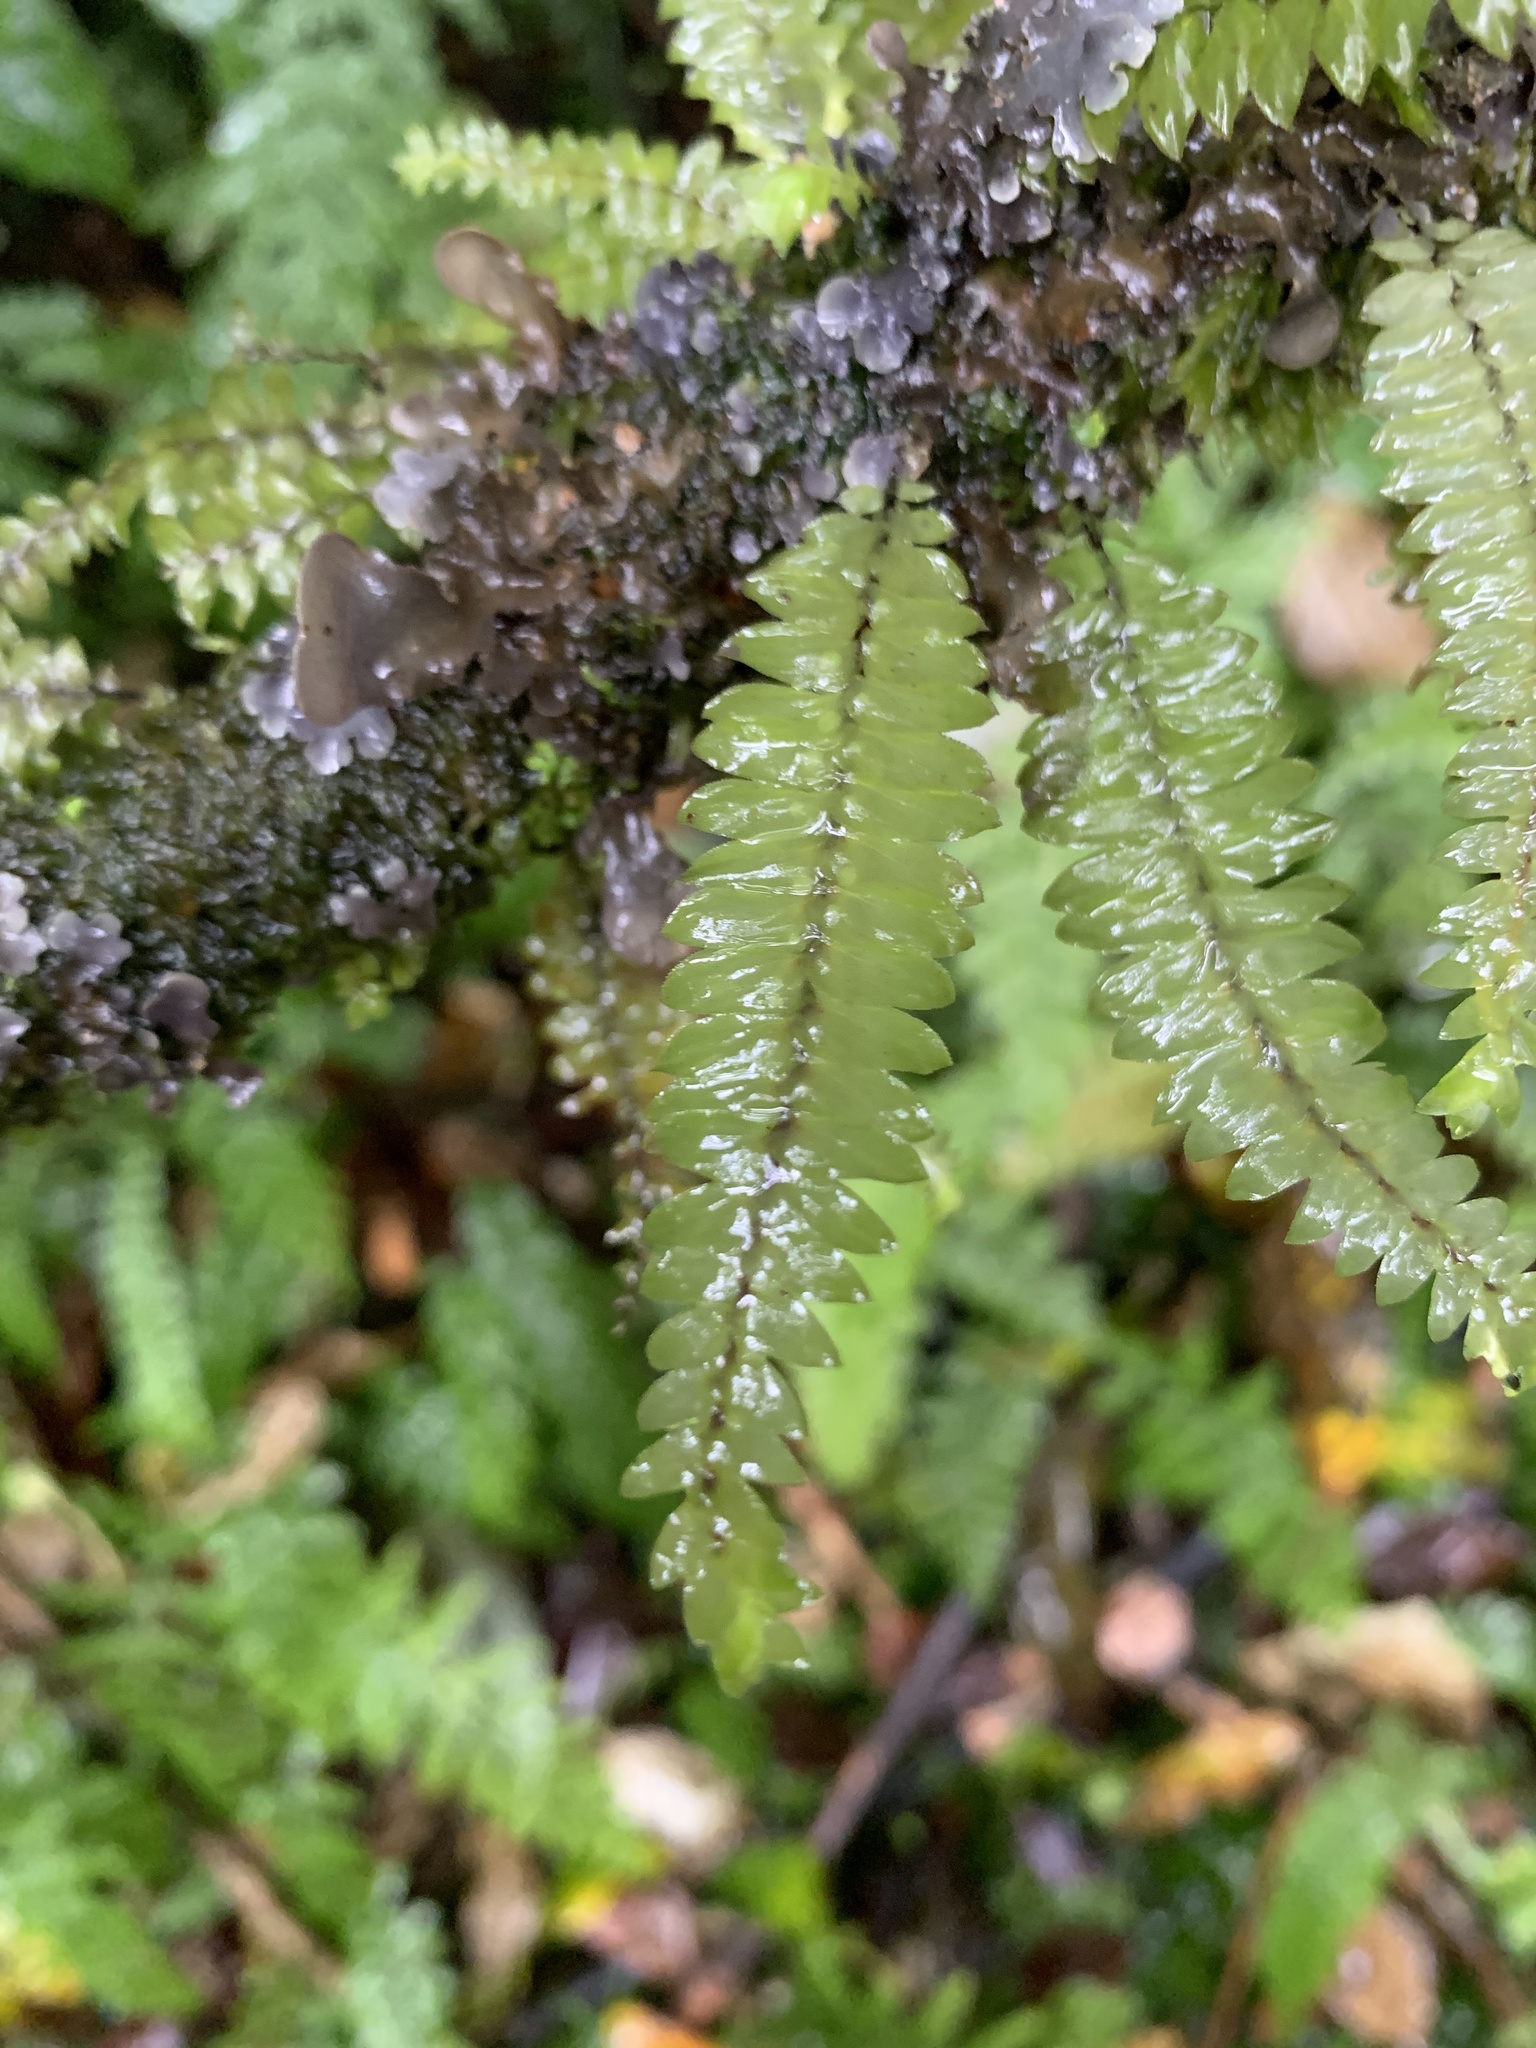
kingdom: Plantae
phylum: Bryophyta
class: Bryopsida
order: Hypopterygiales
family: Hypopterygiaceae
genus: Cyathophorum
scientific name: Cyathophorum bulbosum
